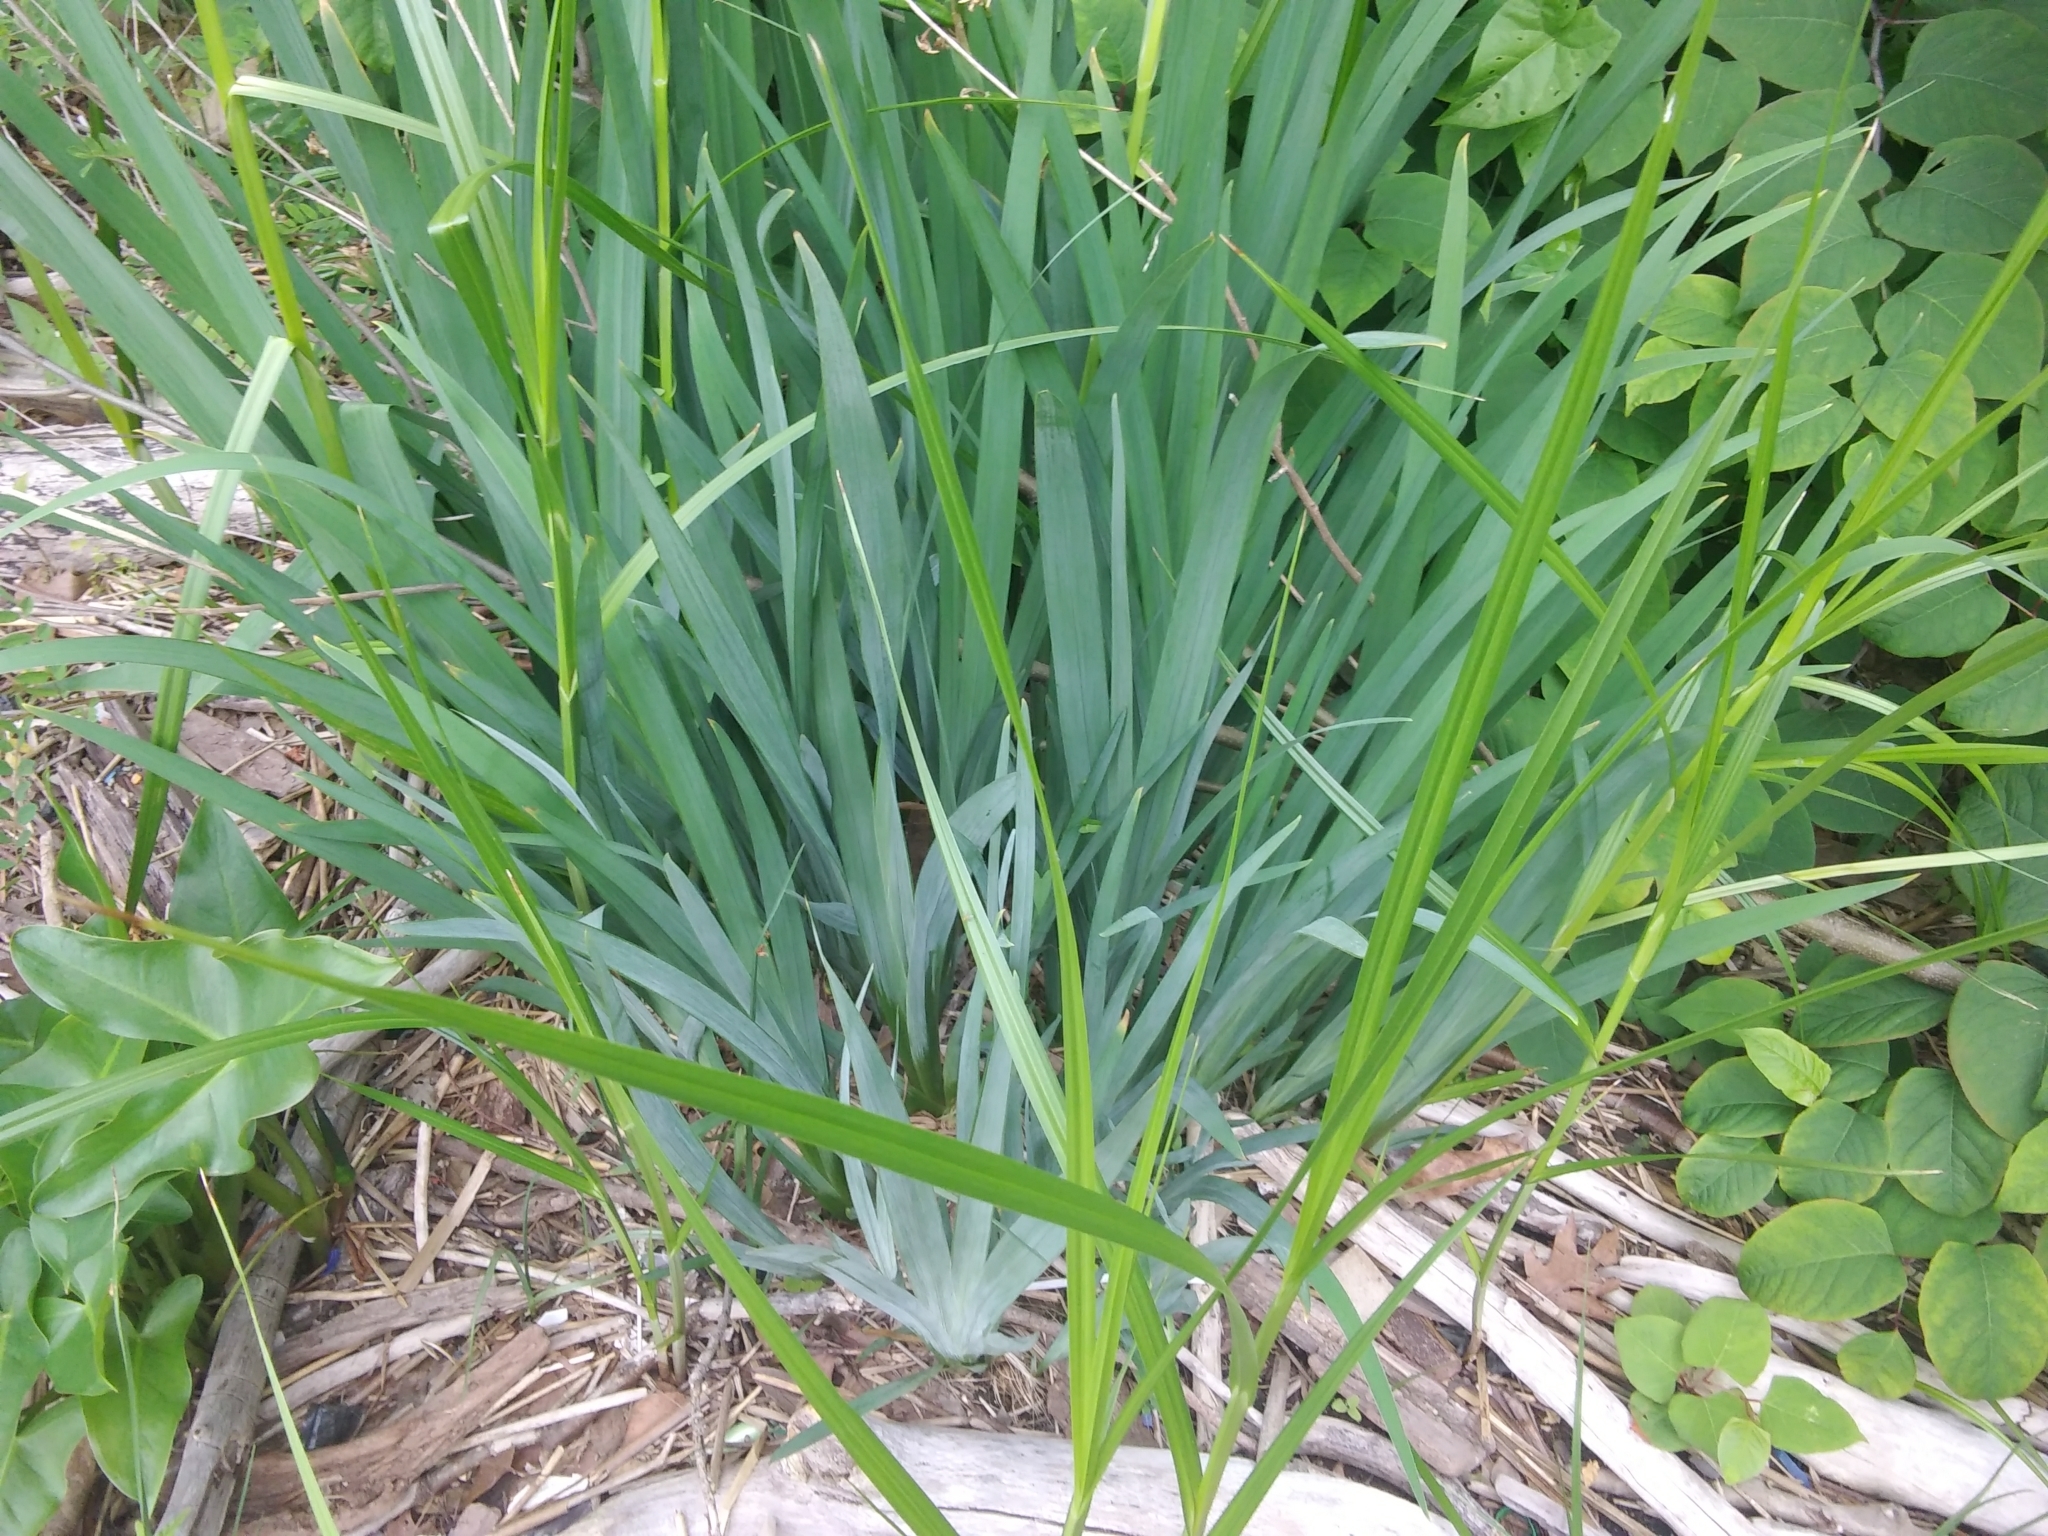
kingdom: Plantae
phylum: Tracheophyta
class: Liliopsida
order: Asparagales
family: Iridaceae
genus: Iris
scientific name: Iris pseudacorus
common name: Yellow flag
